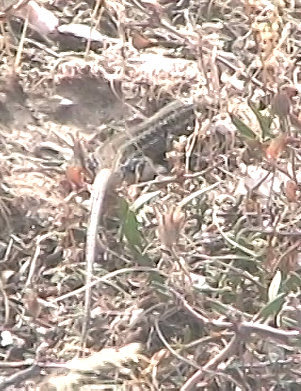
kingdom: Animalia
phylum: Chordata
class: Squamata
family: Lacertidae
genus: Ophisops
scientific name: Ophisops elegans
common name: Snake-eyed lizard
